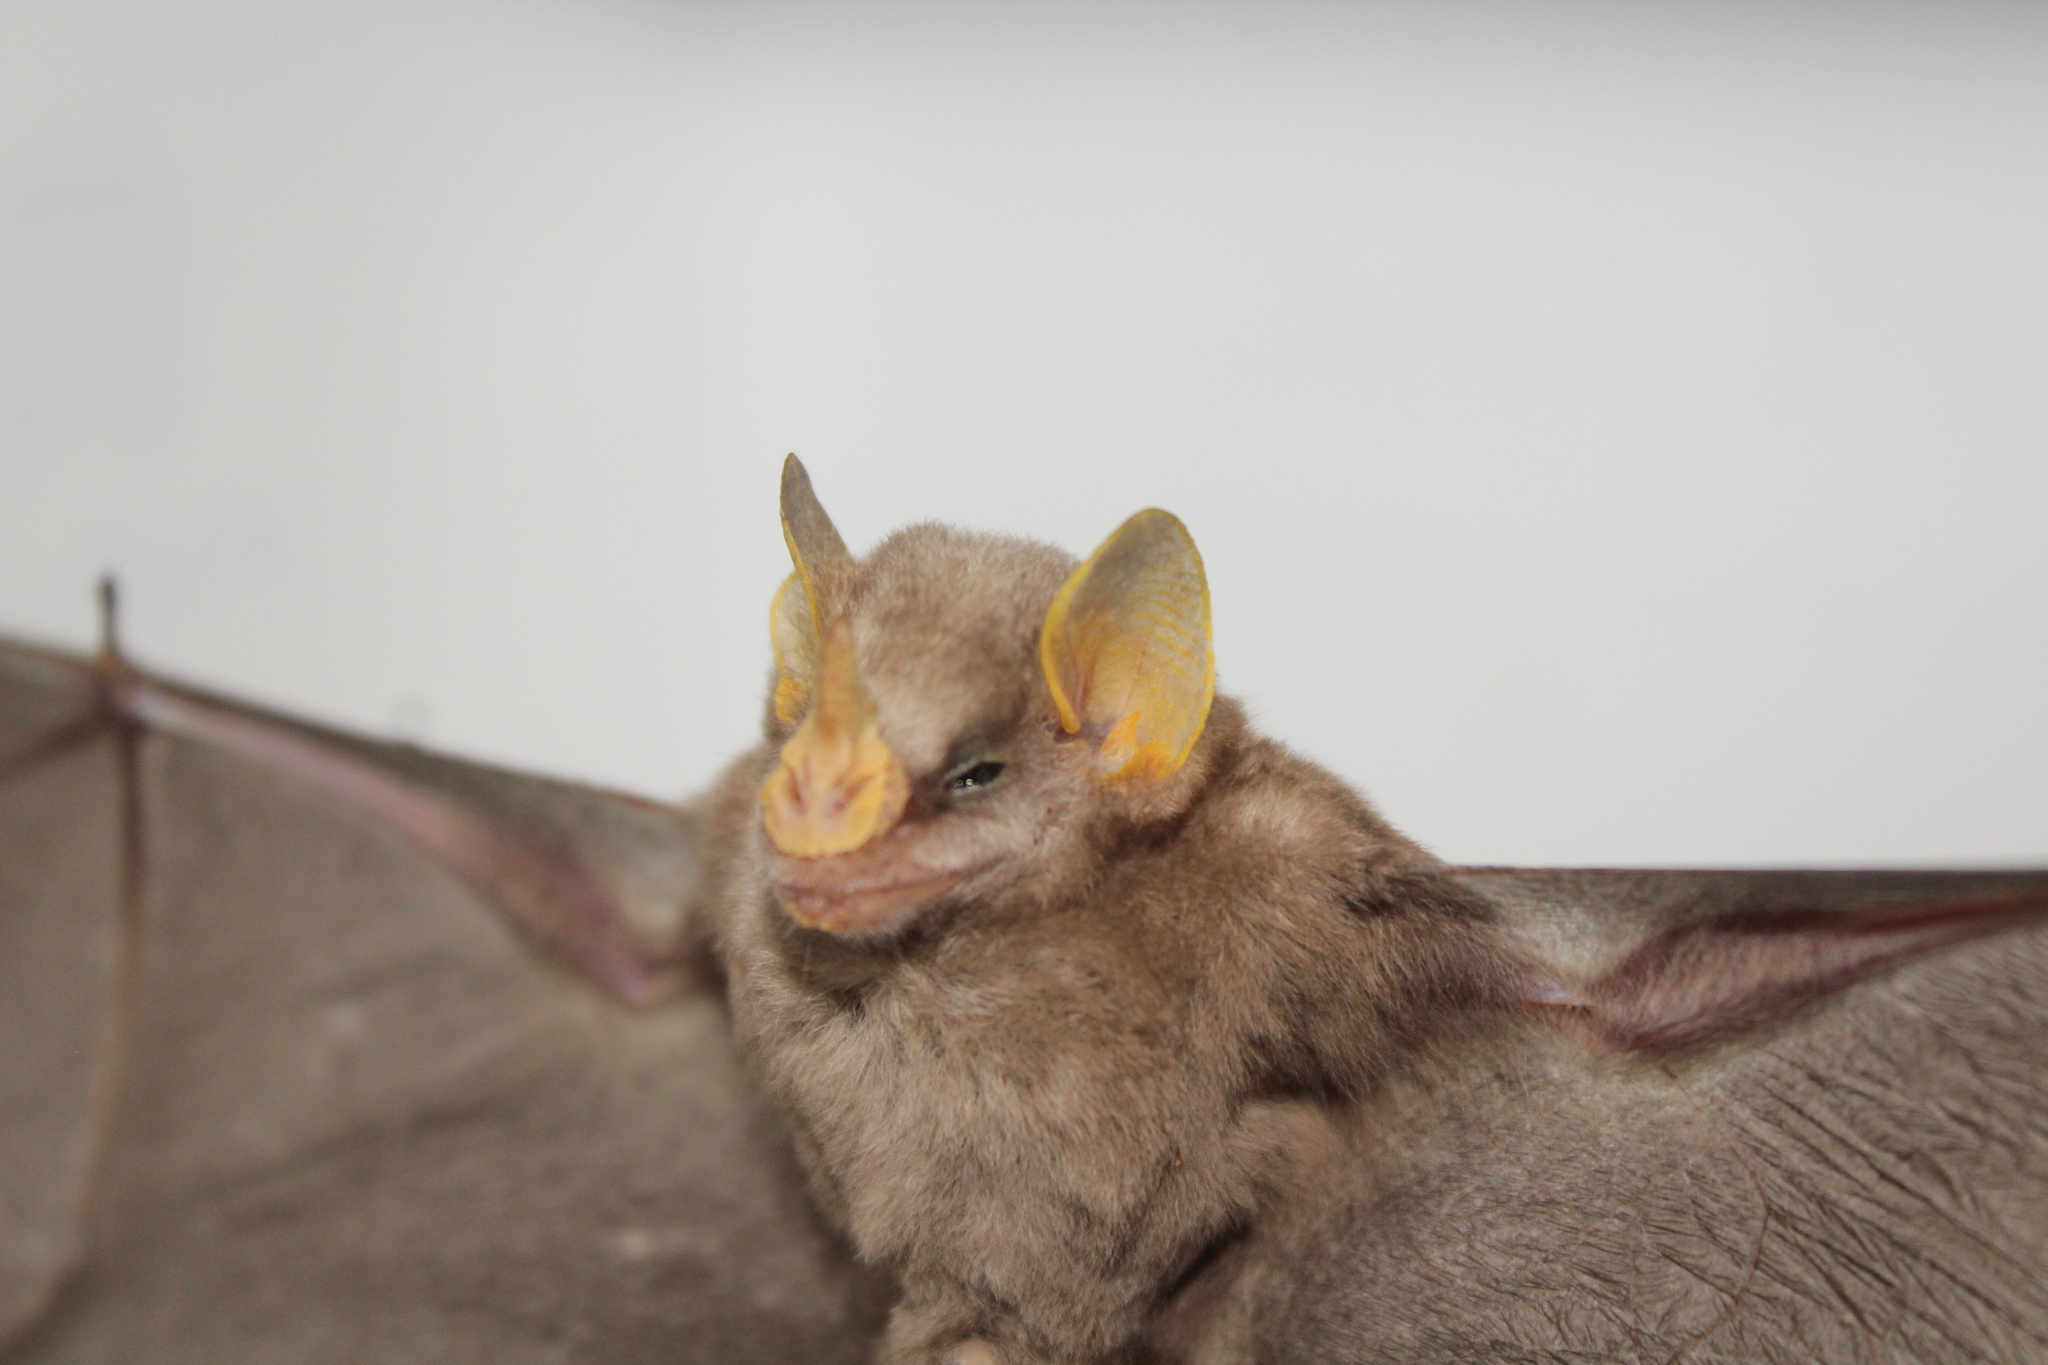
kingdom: Animalia
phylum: Chordata
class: Mammalia
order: Chiroptera
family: Phyllostomidae
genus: Mesophylla
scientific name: Mesophylla macconnelli
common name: Macconnell's bat
